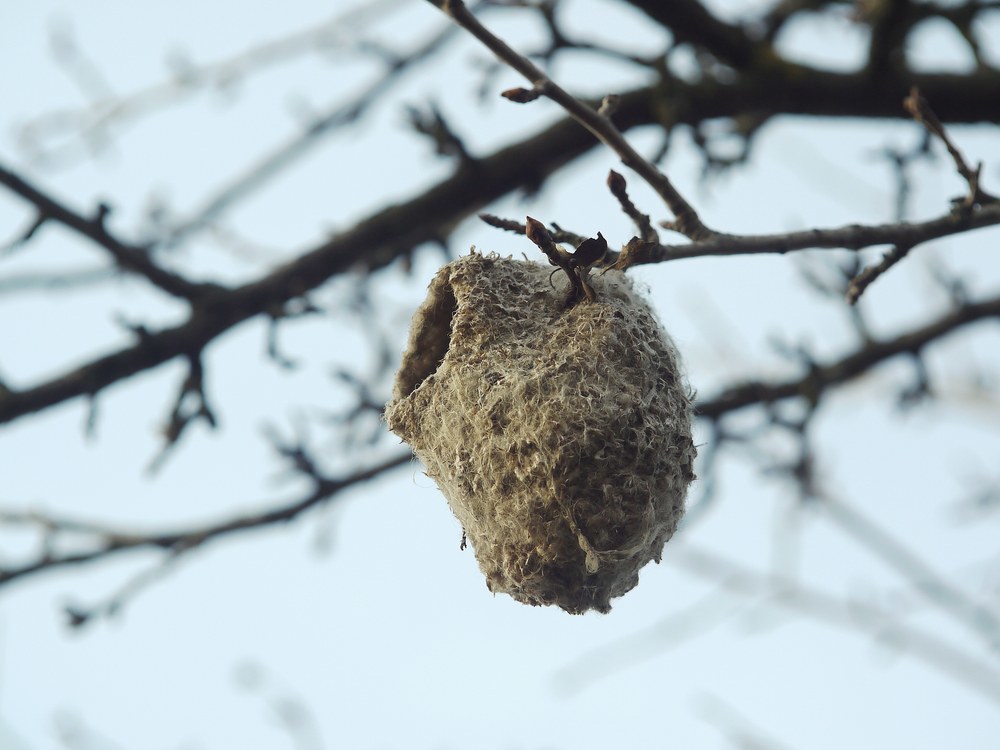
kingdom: Animalia
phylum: Chordata
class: Aves
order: Passeriformes
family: Remizidae
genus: Remiz
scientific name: Remiz pendulinus
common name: Eurasian penduline tit
